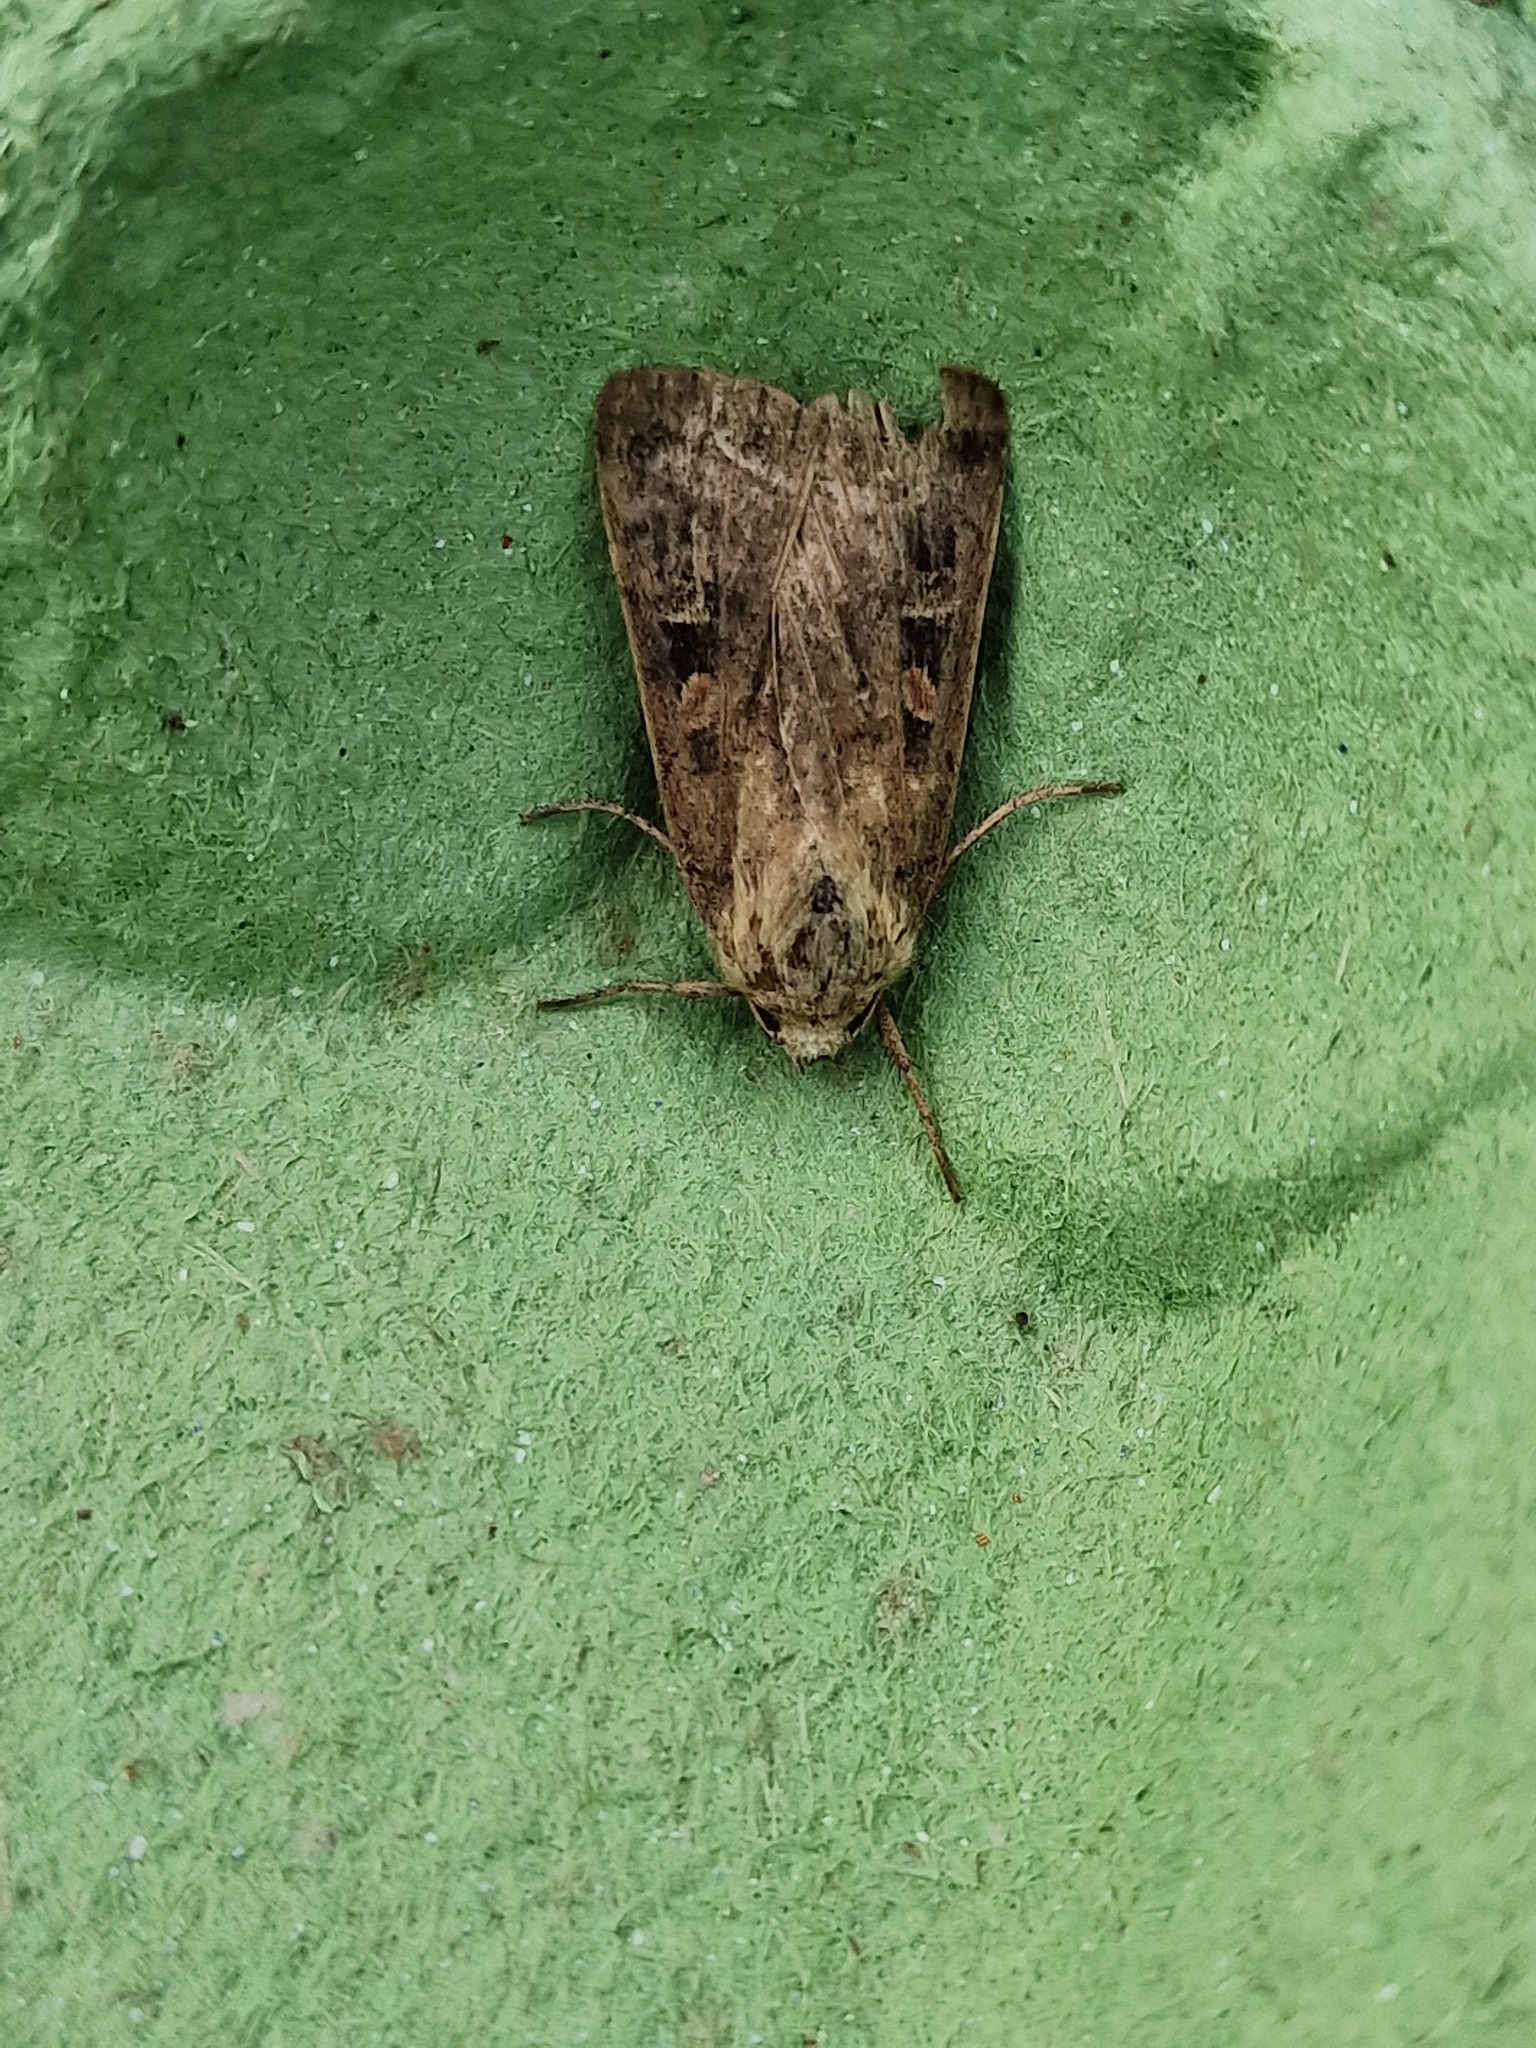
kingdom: Animalia
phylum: Arthropoda
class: Insecta
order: Lepidoptera
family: Noctuidae
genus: Xestia
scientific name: Xestia xanthographa
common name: Square-spot rustic
